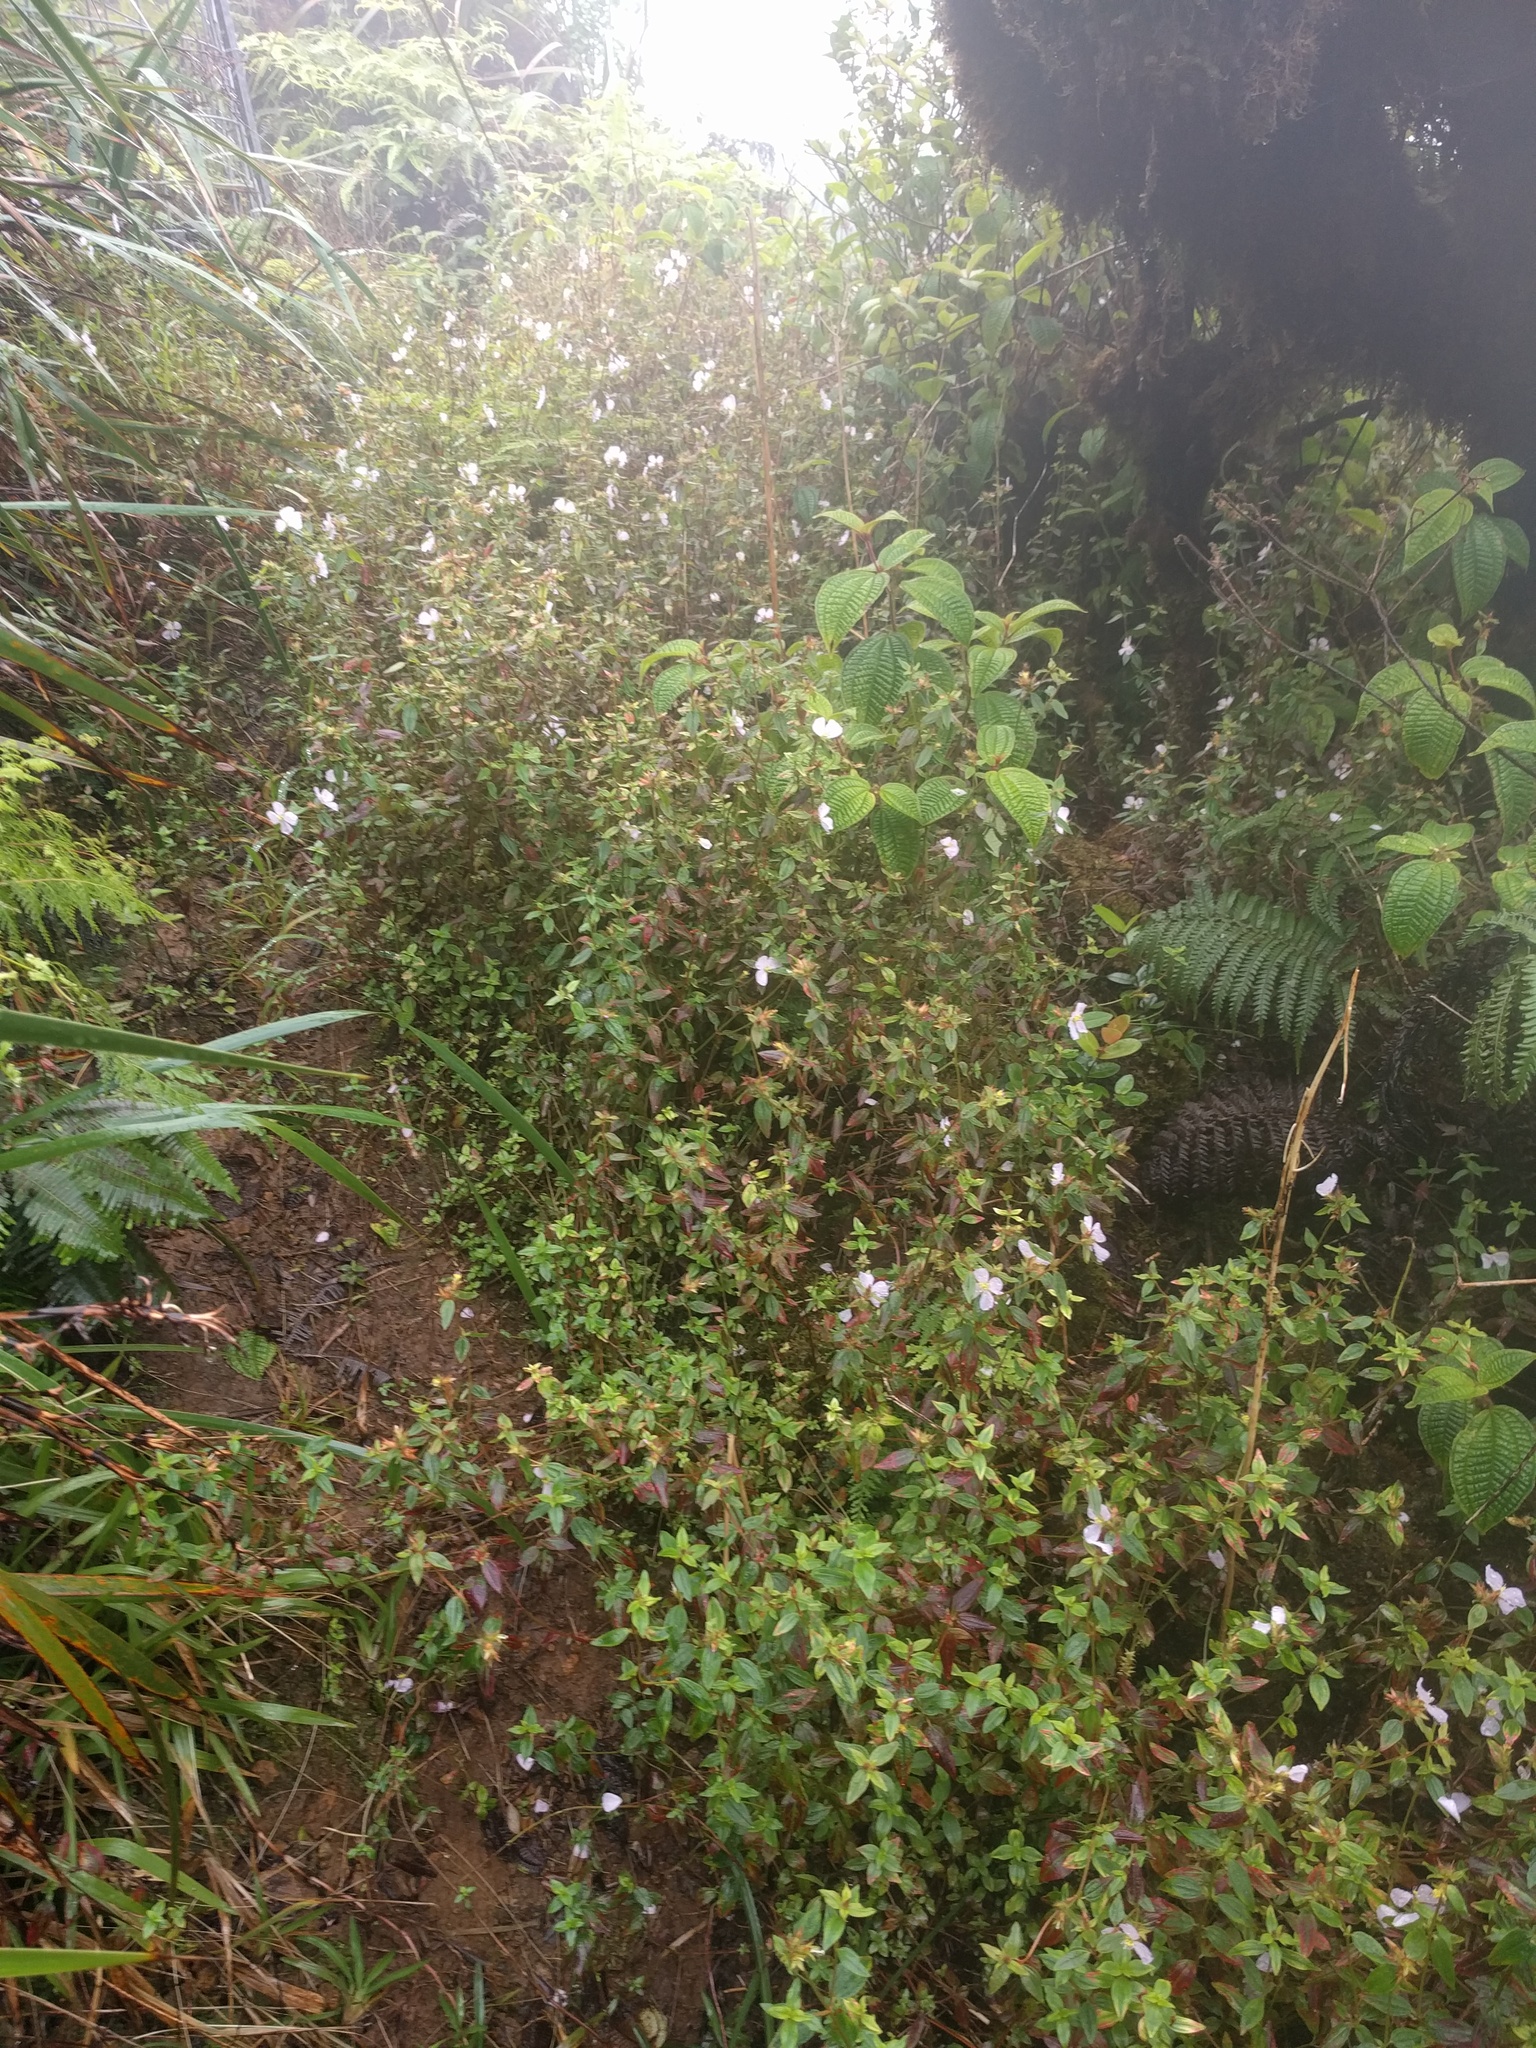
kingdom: Plantae
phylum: Tracheophyta
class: Magnoliopsida
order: Myrtales
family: Melastomataceae
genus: Pterolepis
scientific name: Pterolepis glomerata
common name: False meadowbeauty
